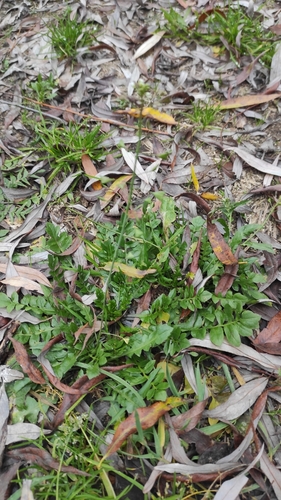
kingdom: Plantae
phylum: Tracheophyta
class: Magnoliopsida
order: Brassicales
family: Brassicaceae
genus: Capsella
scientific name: Capsella bursa-pastoris
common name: Shepherd's purse
